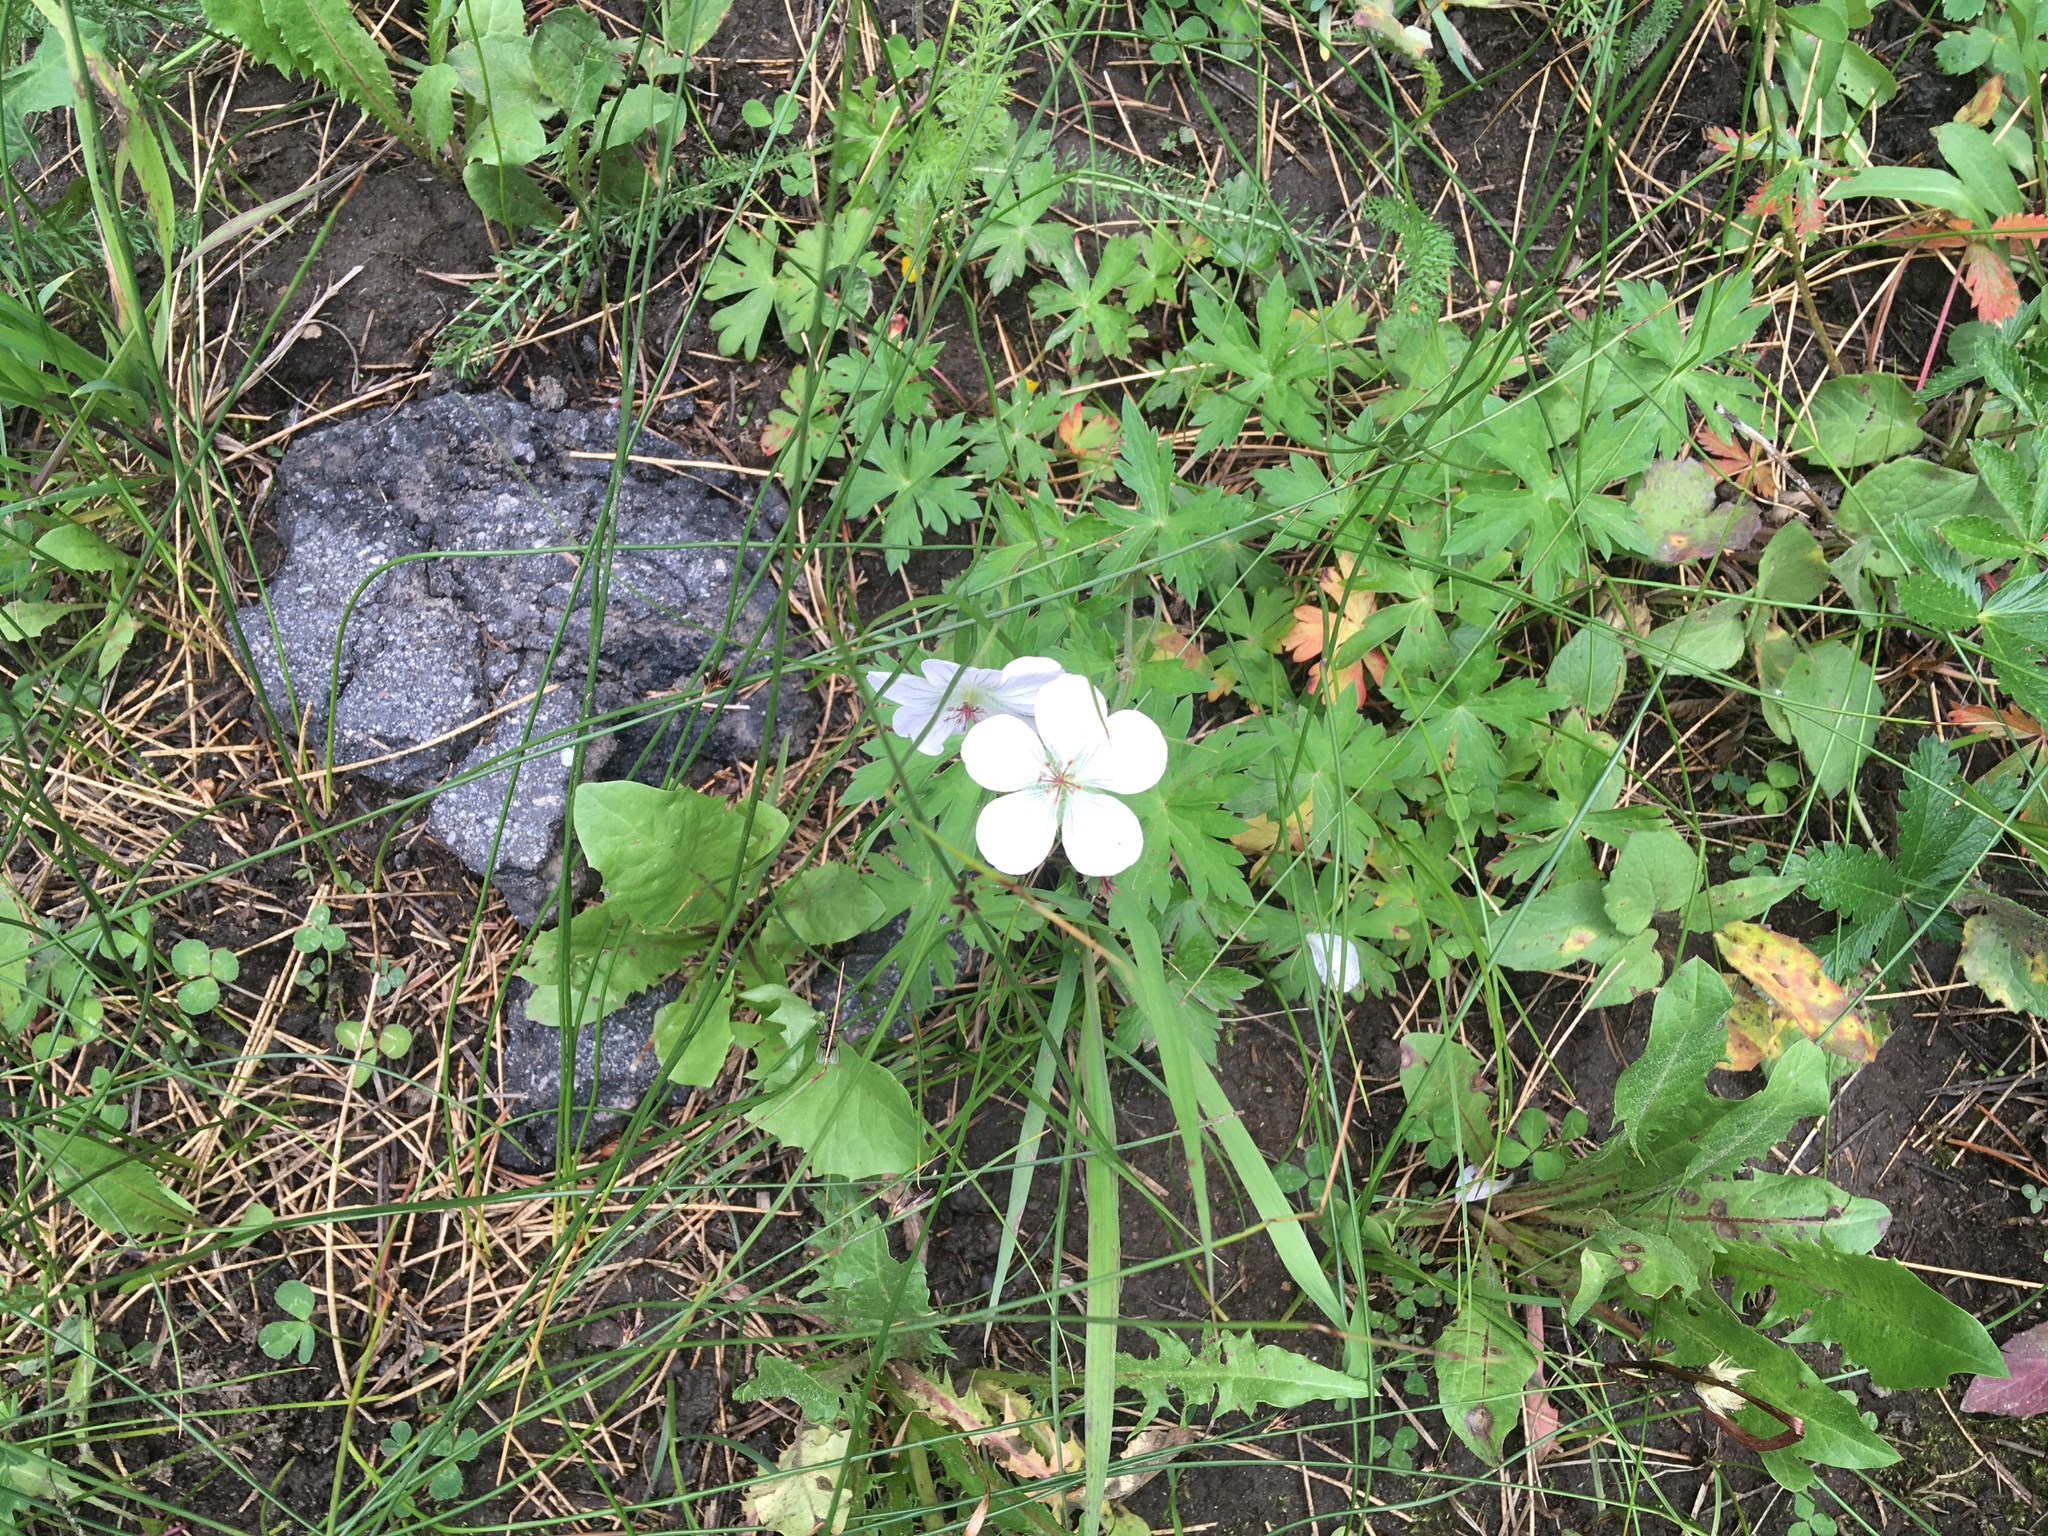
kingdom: Plantae
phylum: Tracheophyta
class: Magnoliopsida
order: Geraniales
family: Geraniaceae
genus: Geranium
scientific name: Geranium richardsonii
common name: Richardson's crane's-bill
